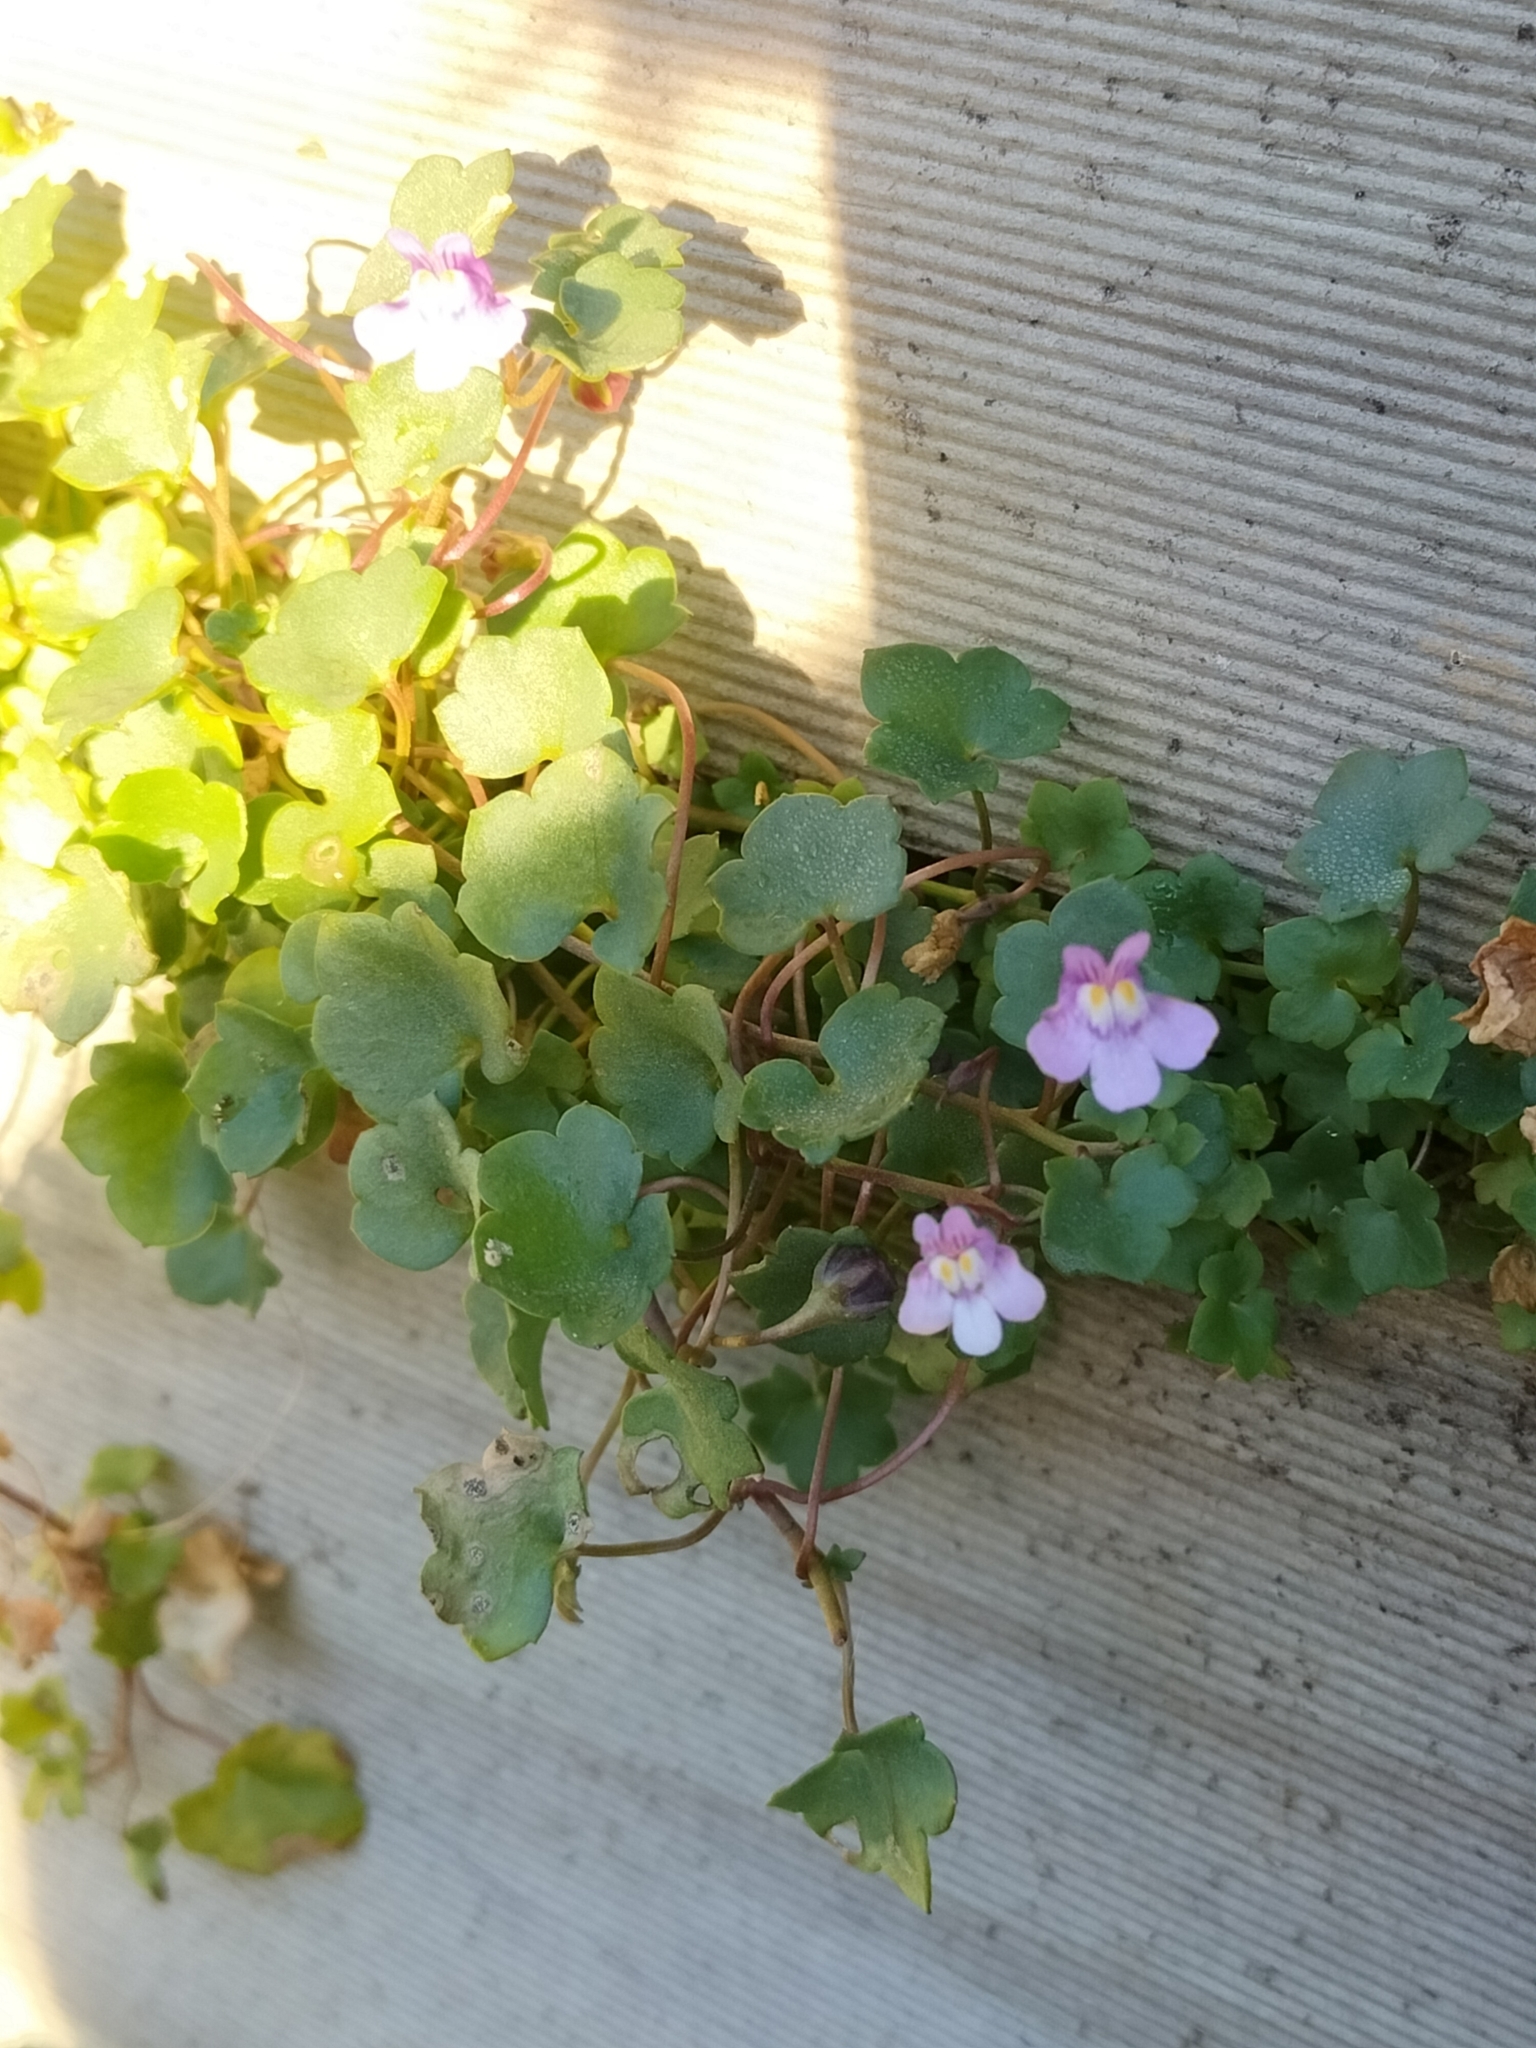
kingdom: Plantae
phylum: Tracheophyta
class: Magnoliopsida
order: Lamiales
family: Plantaginaceae
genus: Cymbalaria
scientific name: Cymbalaria muralis
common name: Ivy-leaved toadflax
